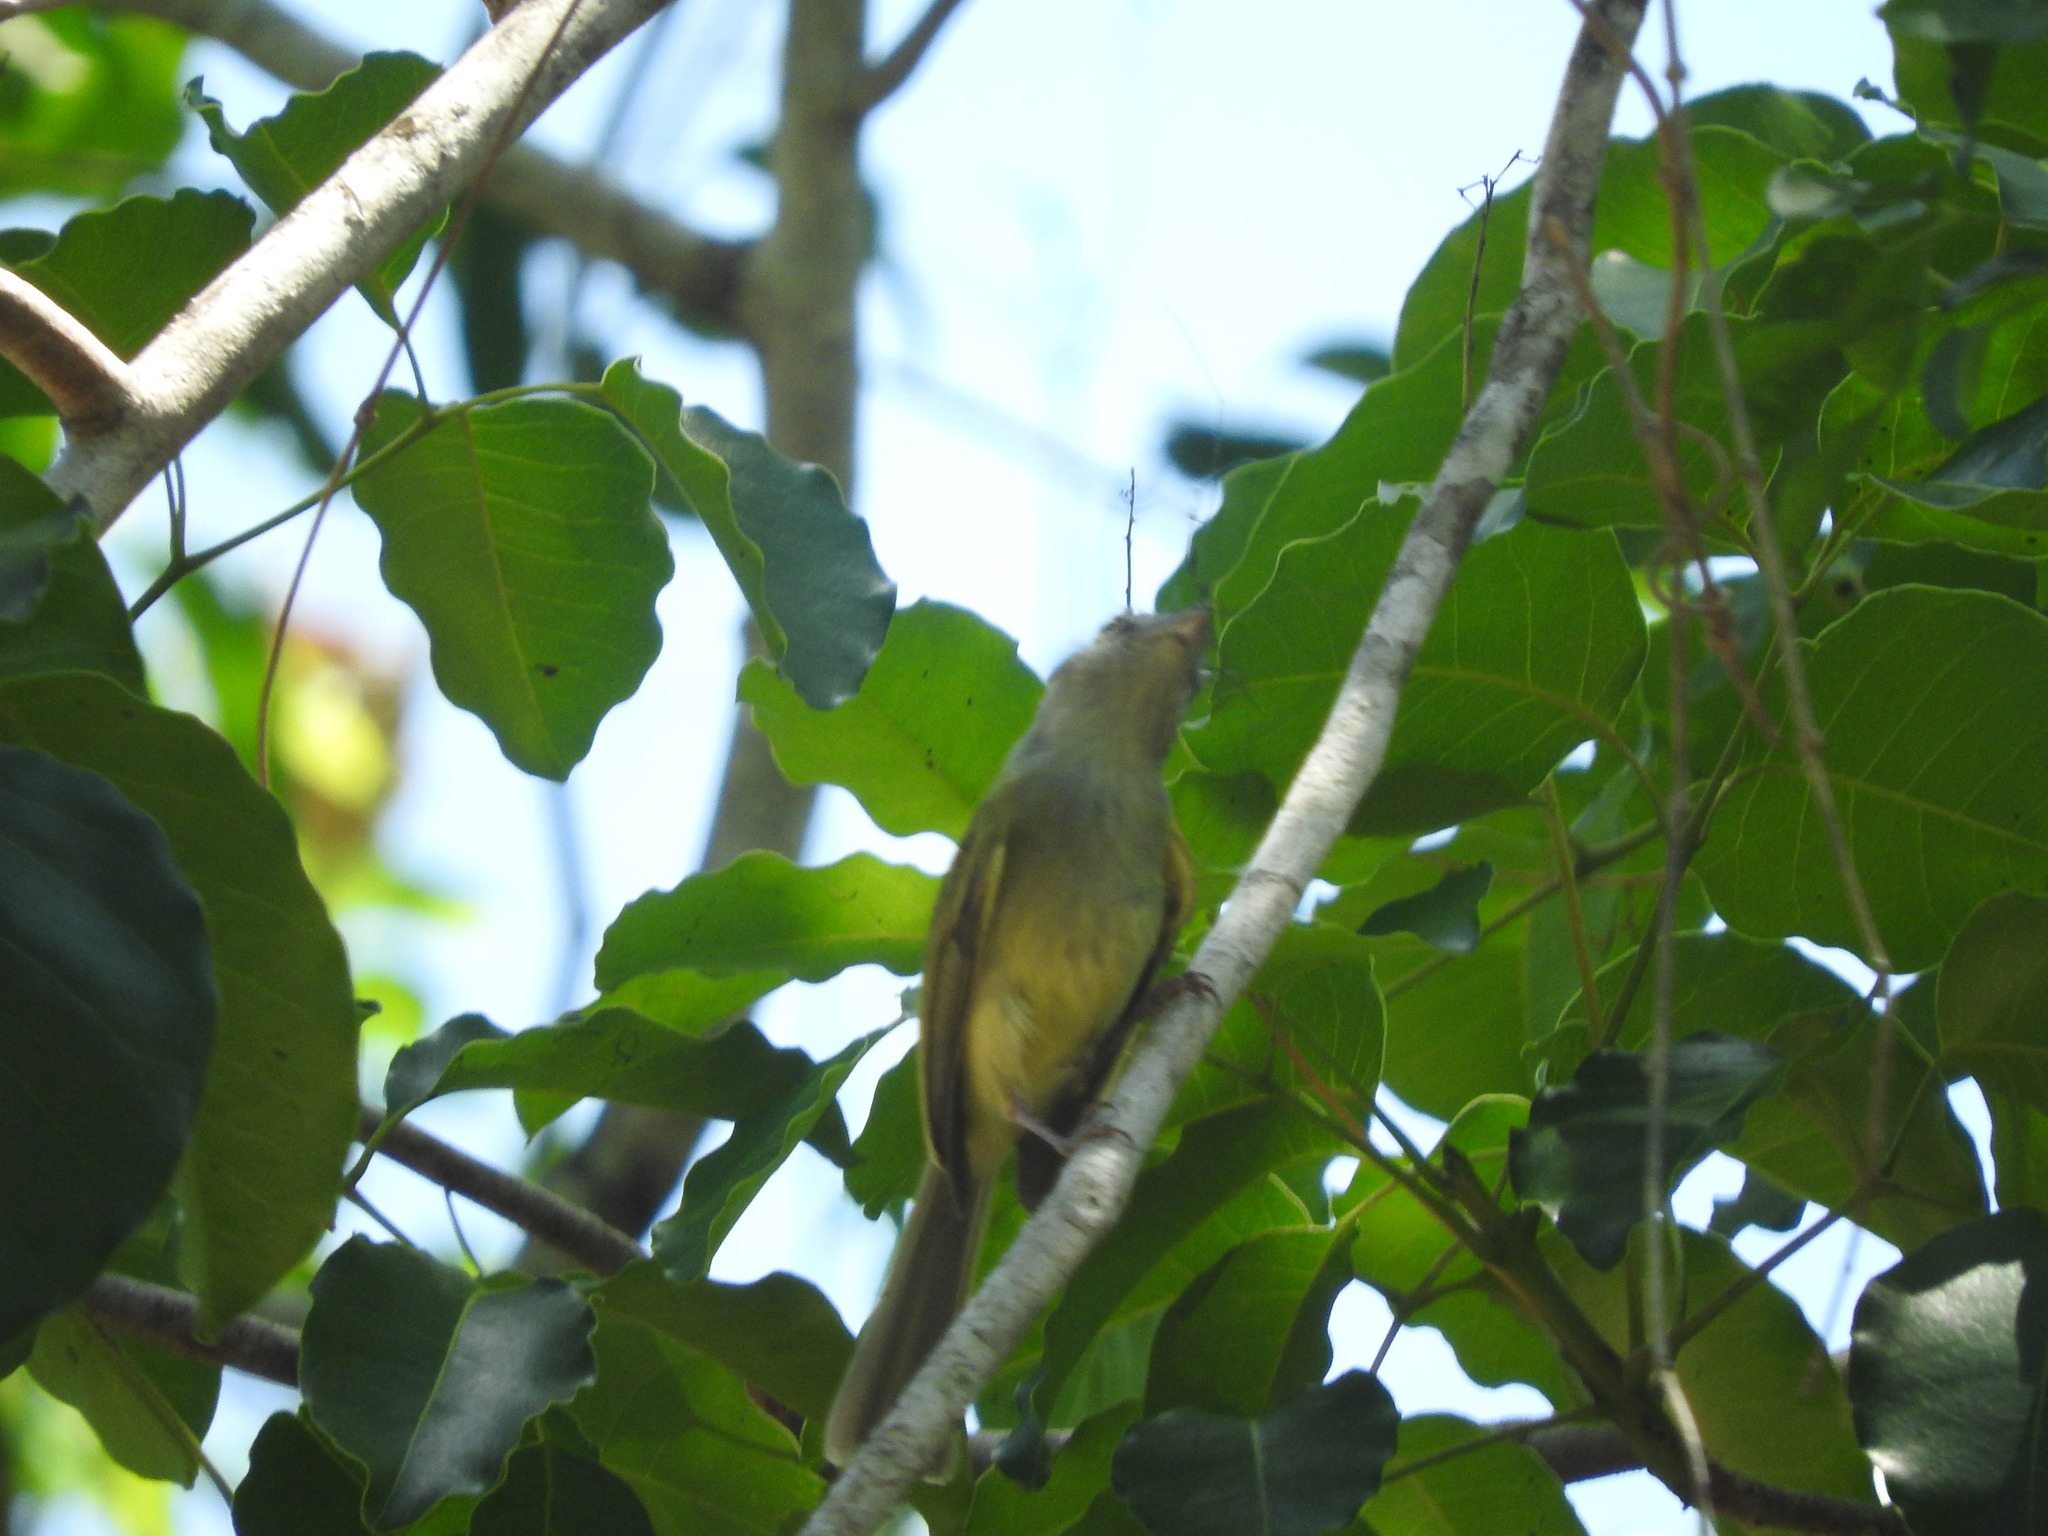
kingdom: Animalia
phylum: Chordata
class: Aves
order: Passeriformes
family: Tyrannidae
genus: Tolmomyias
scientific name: Tolmomyias sulphurescens
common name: Yellow-olive flycatcher
